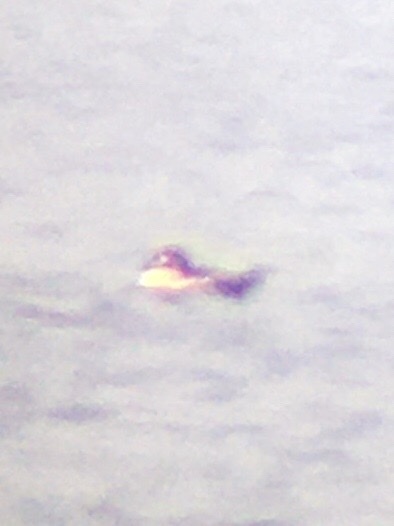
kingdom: Animalia
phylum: Chordata
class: Aves
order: Anseriformes
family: Anatidae
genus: Bucephala
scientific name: Bucephala clangula
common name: Common goldeneye
